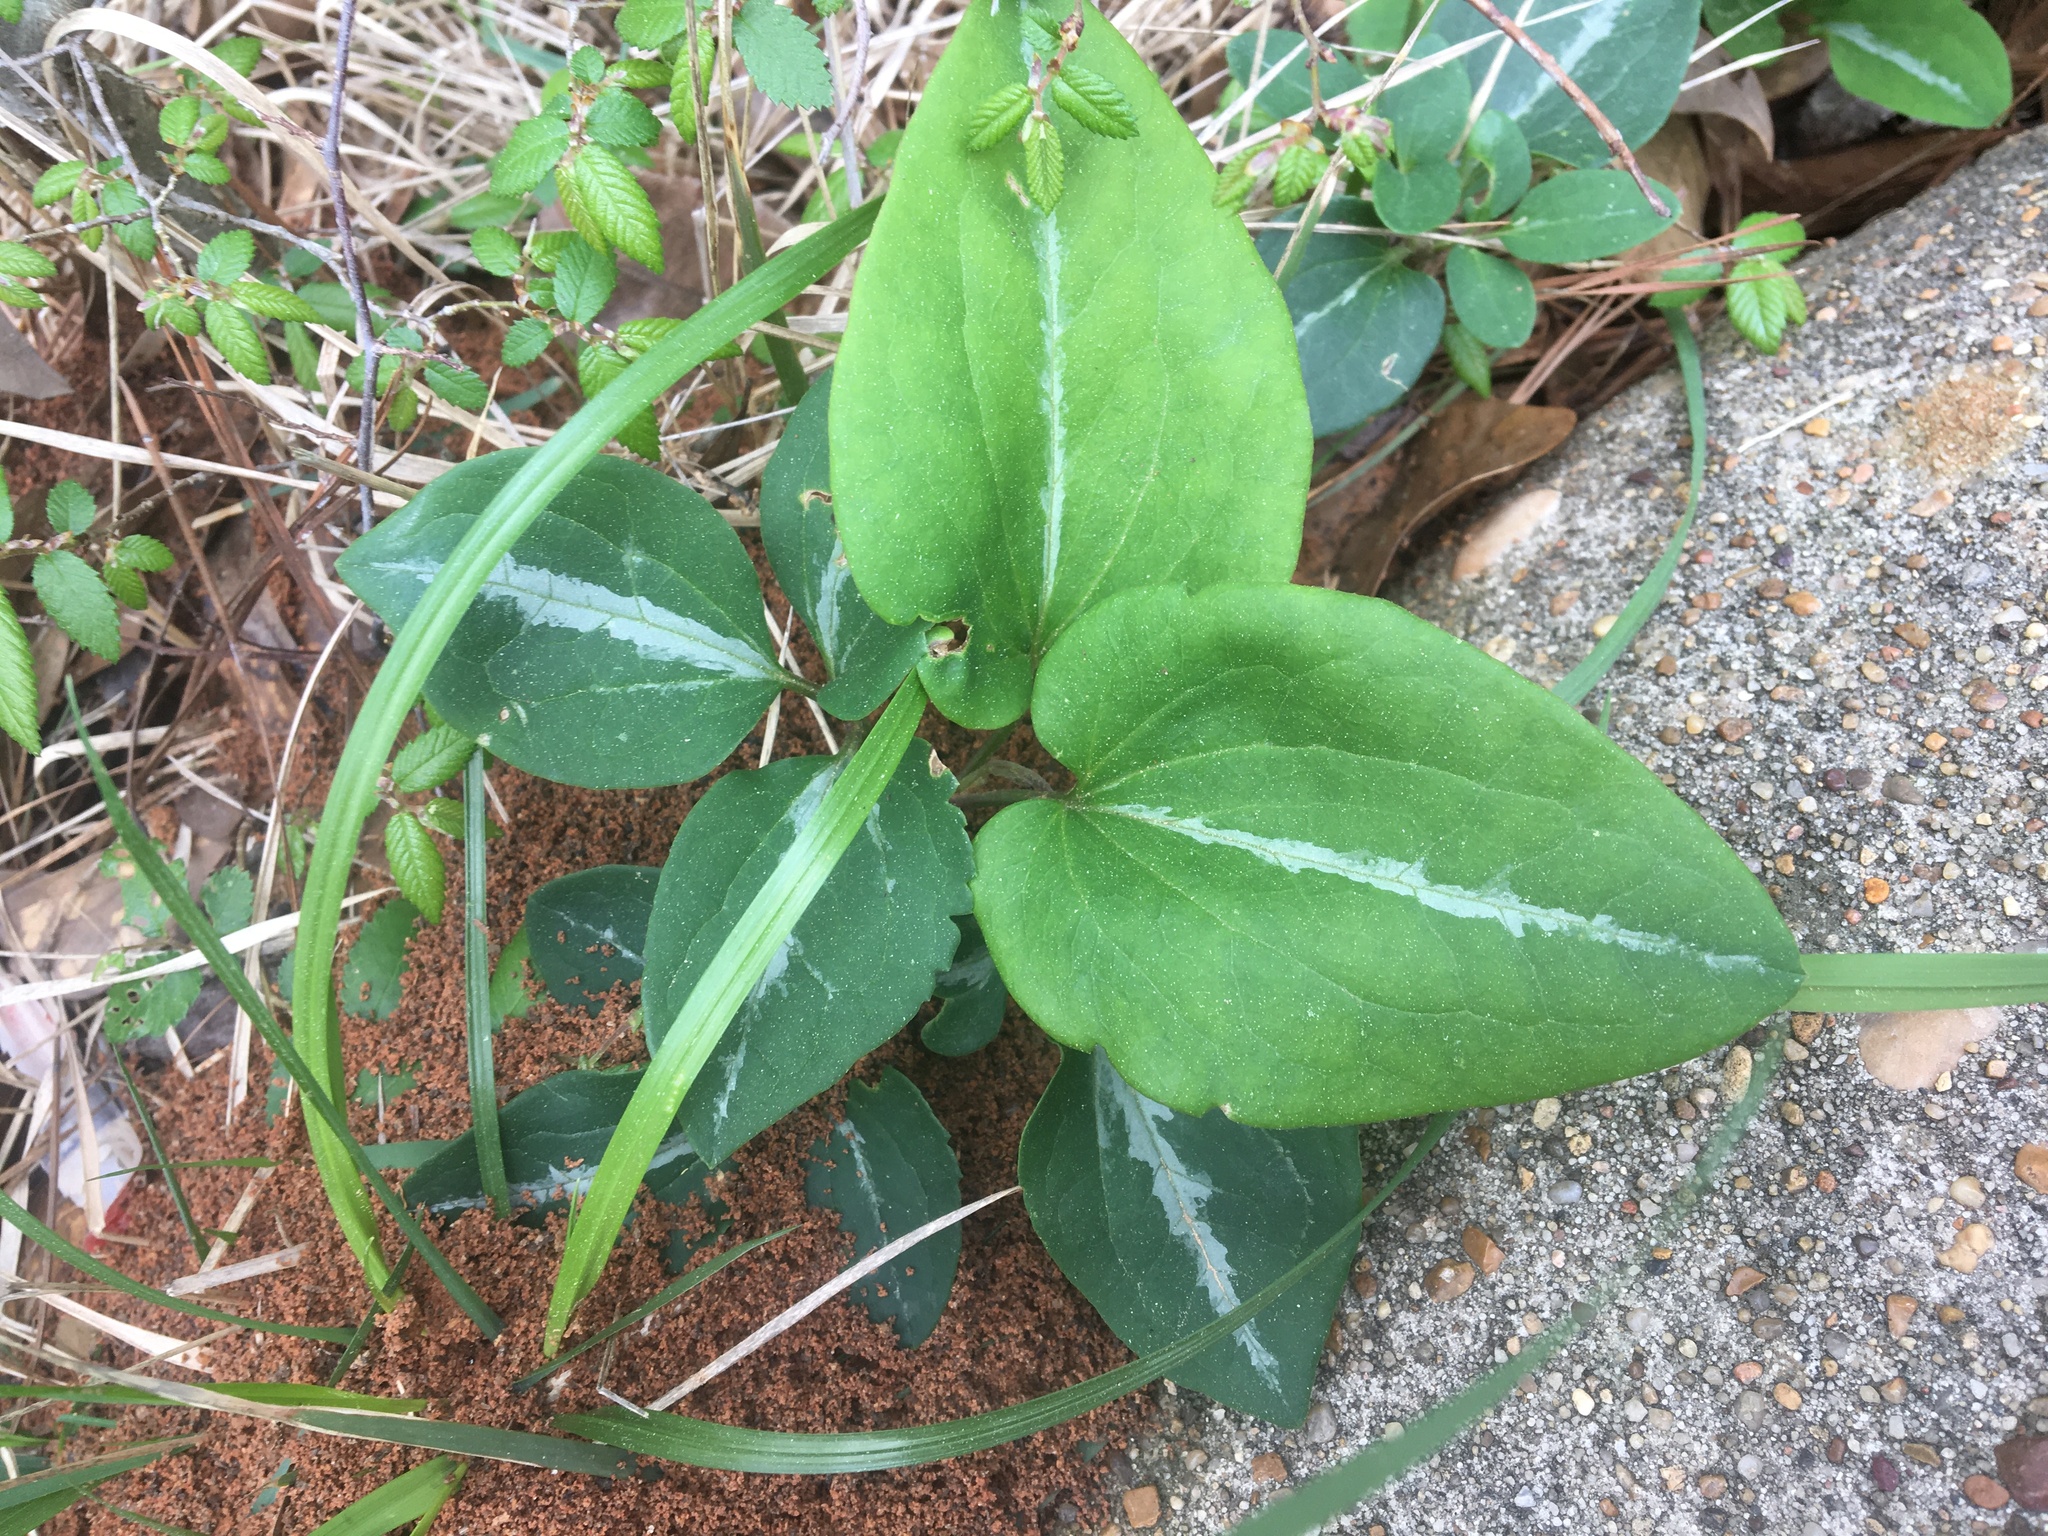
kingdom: Plantae
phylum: Tracheophyta
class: Magnoliopsida
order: Ranunculales
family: Ranunculaceae
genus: Clematis
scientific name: Clematis terniflora
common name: Sweet autumn clematis
